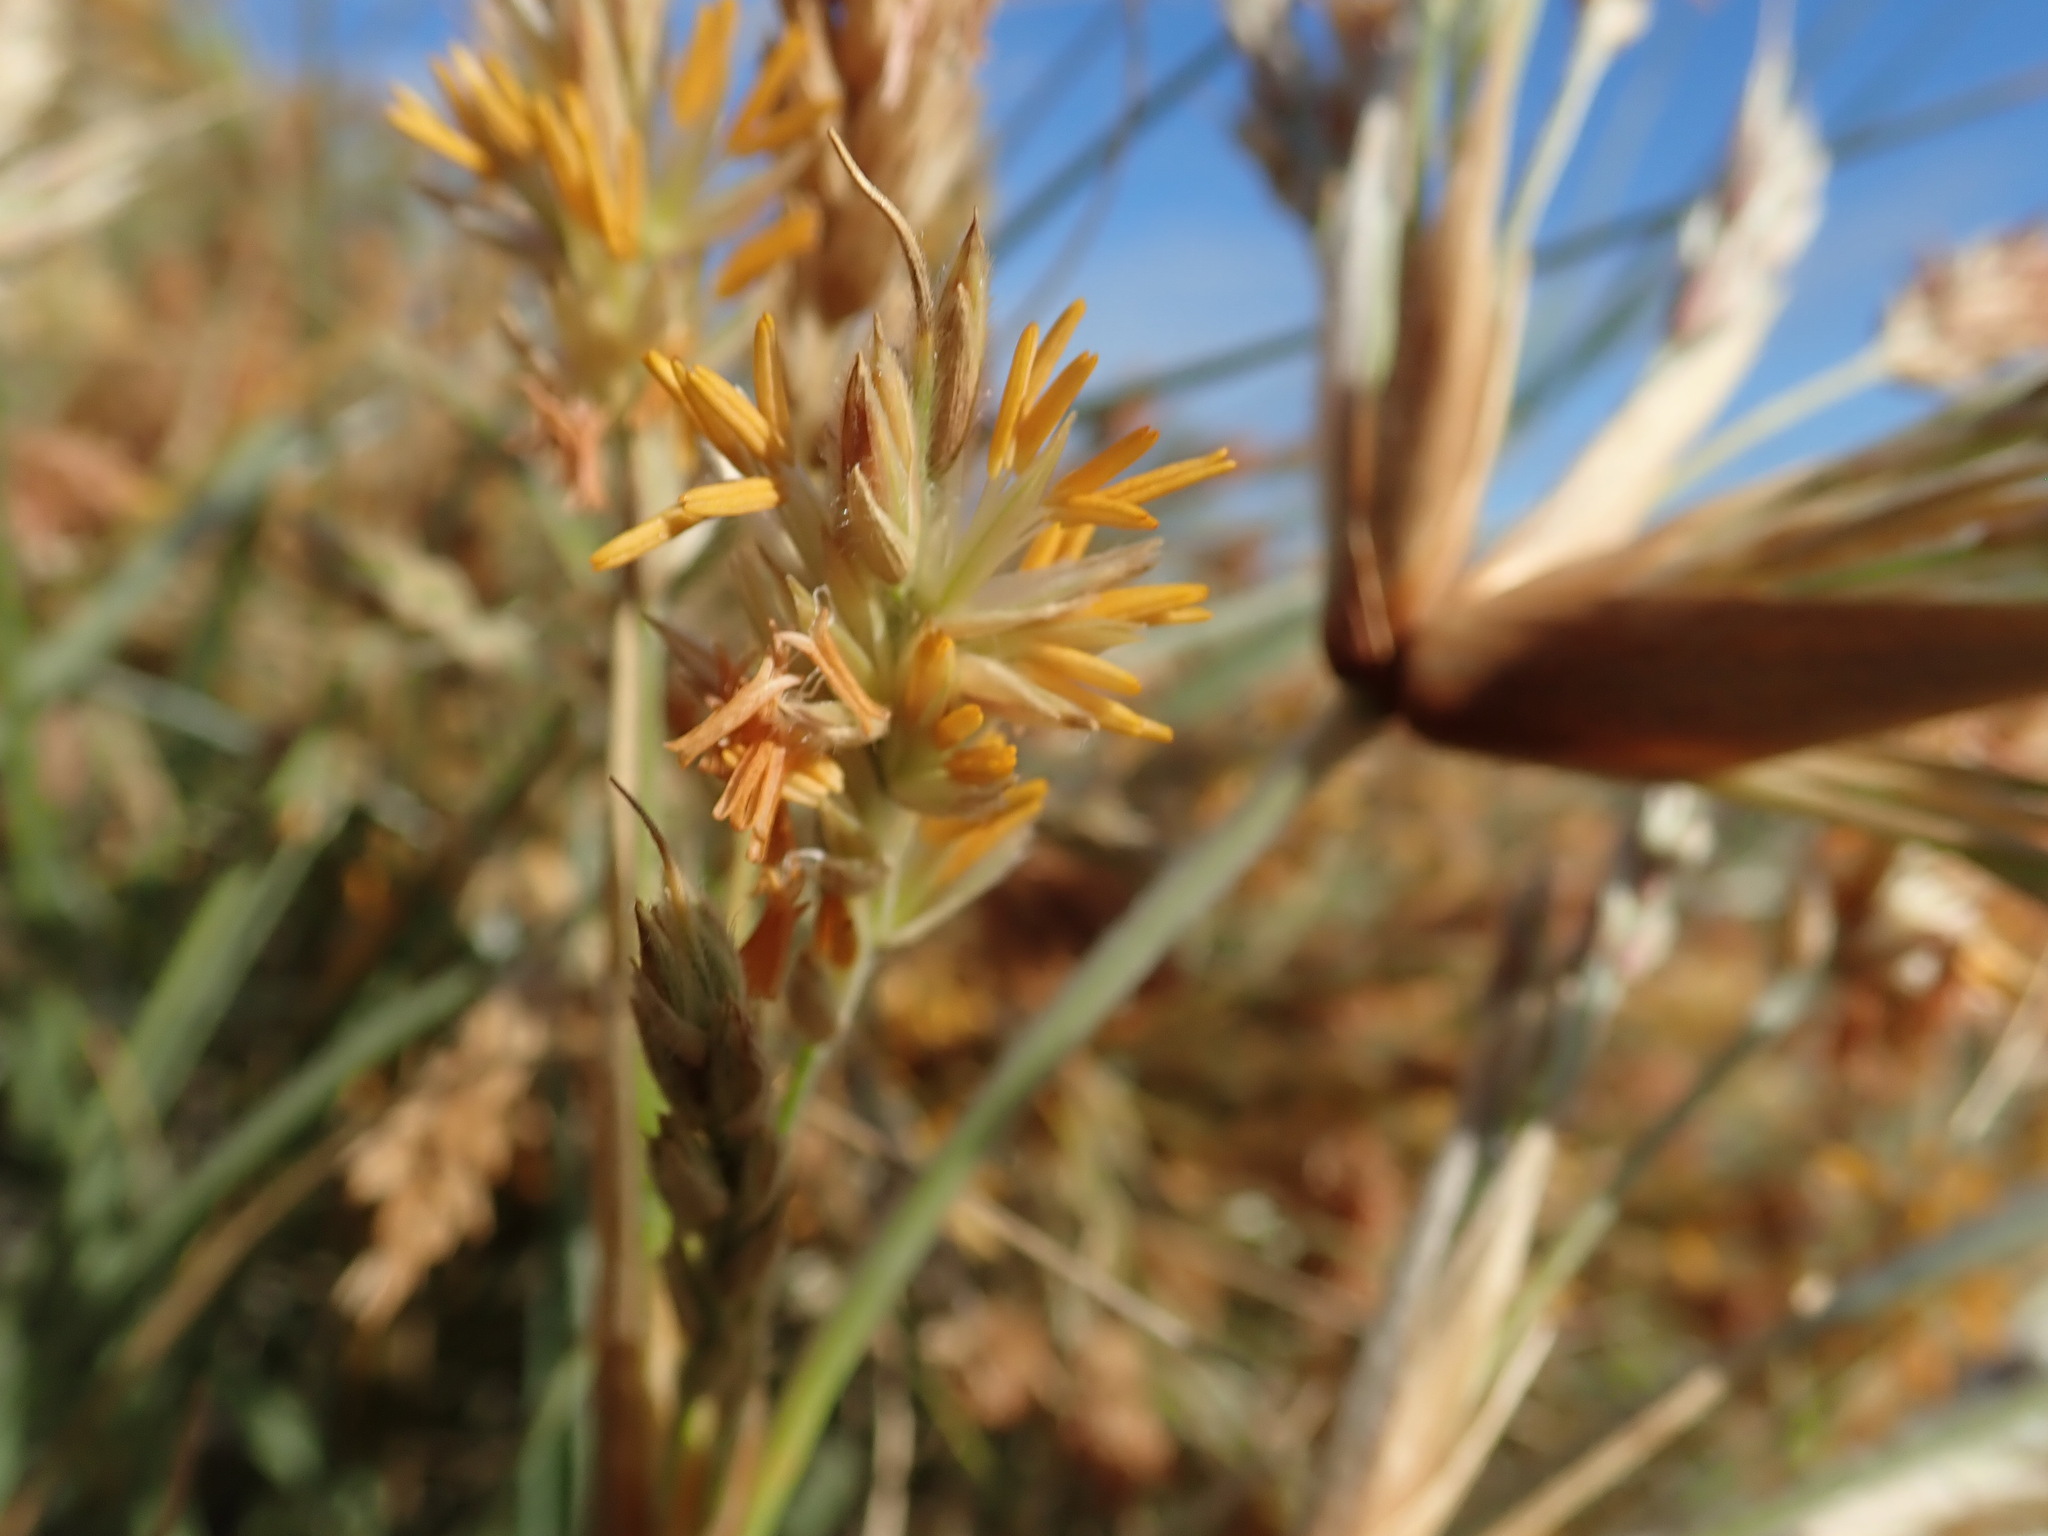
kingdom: Plantae
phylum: Tracheophyta
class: Liliopsida
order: Poales
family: Poaceae
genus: Spinifex
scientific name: Spinifex sericeus
